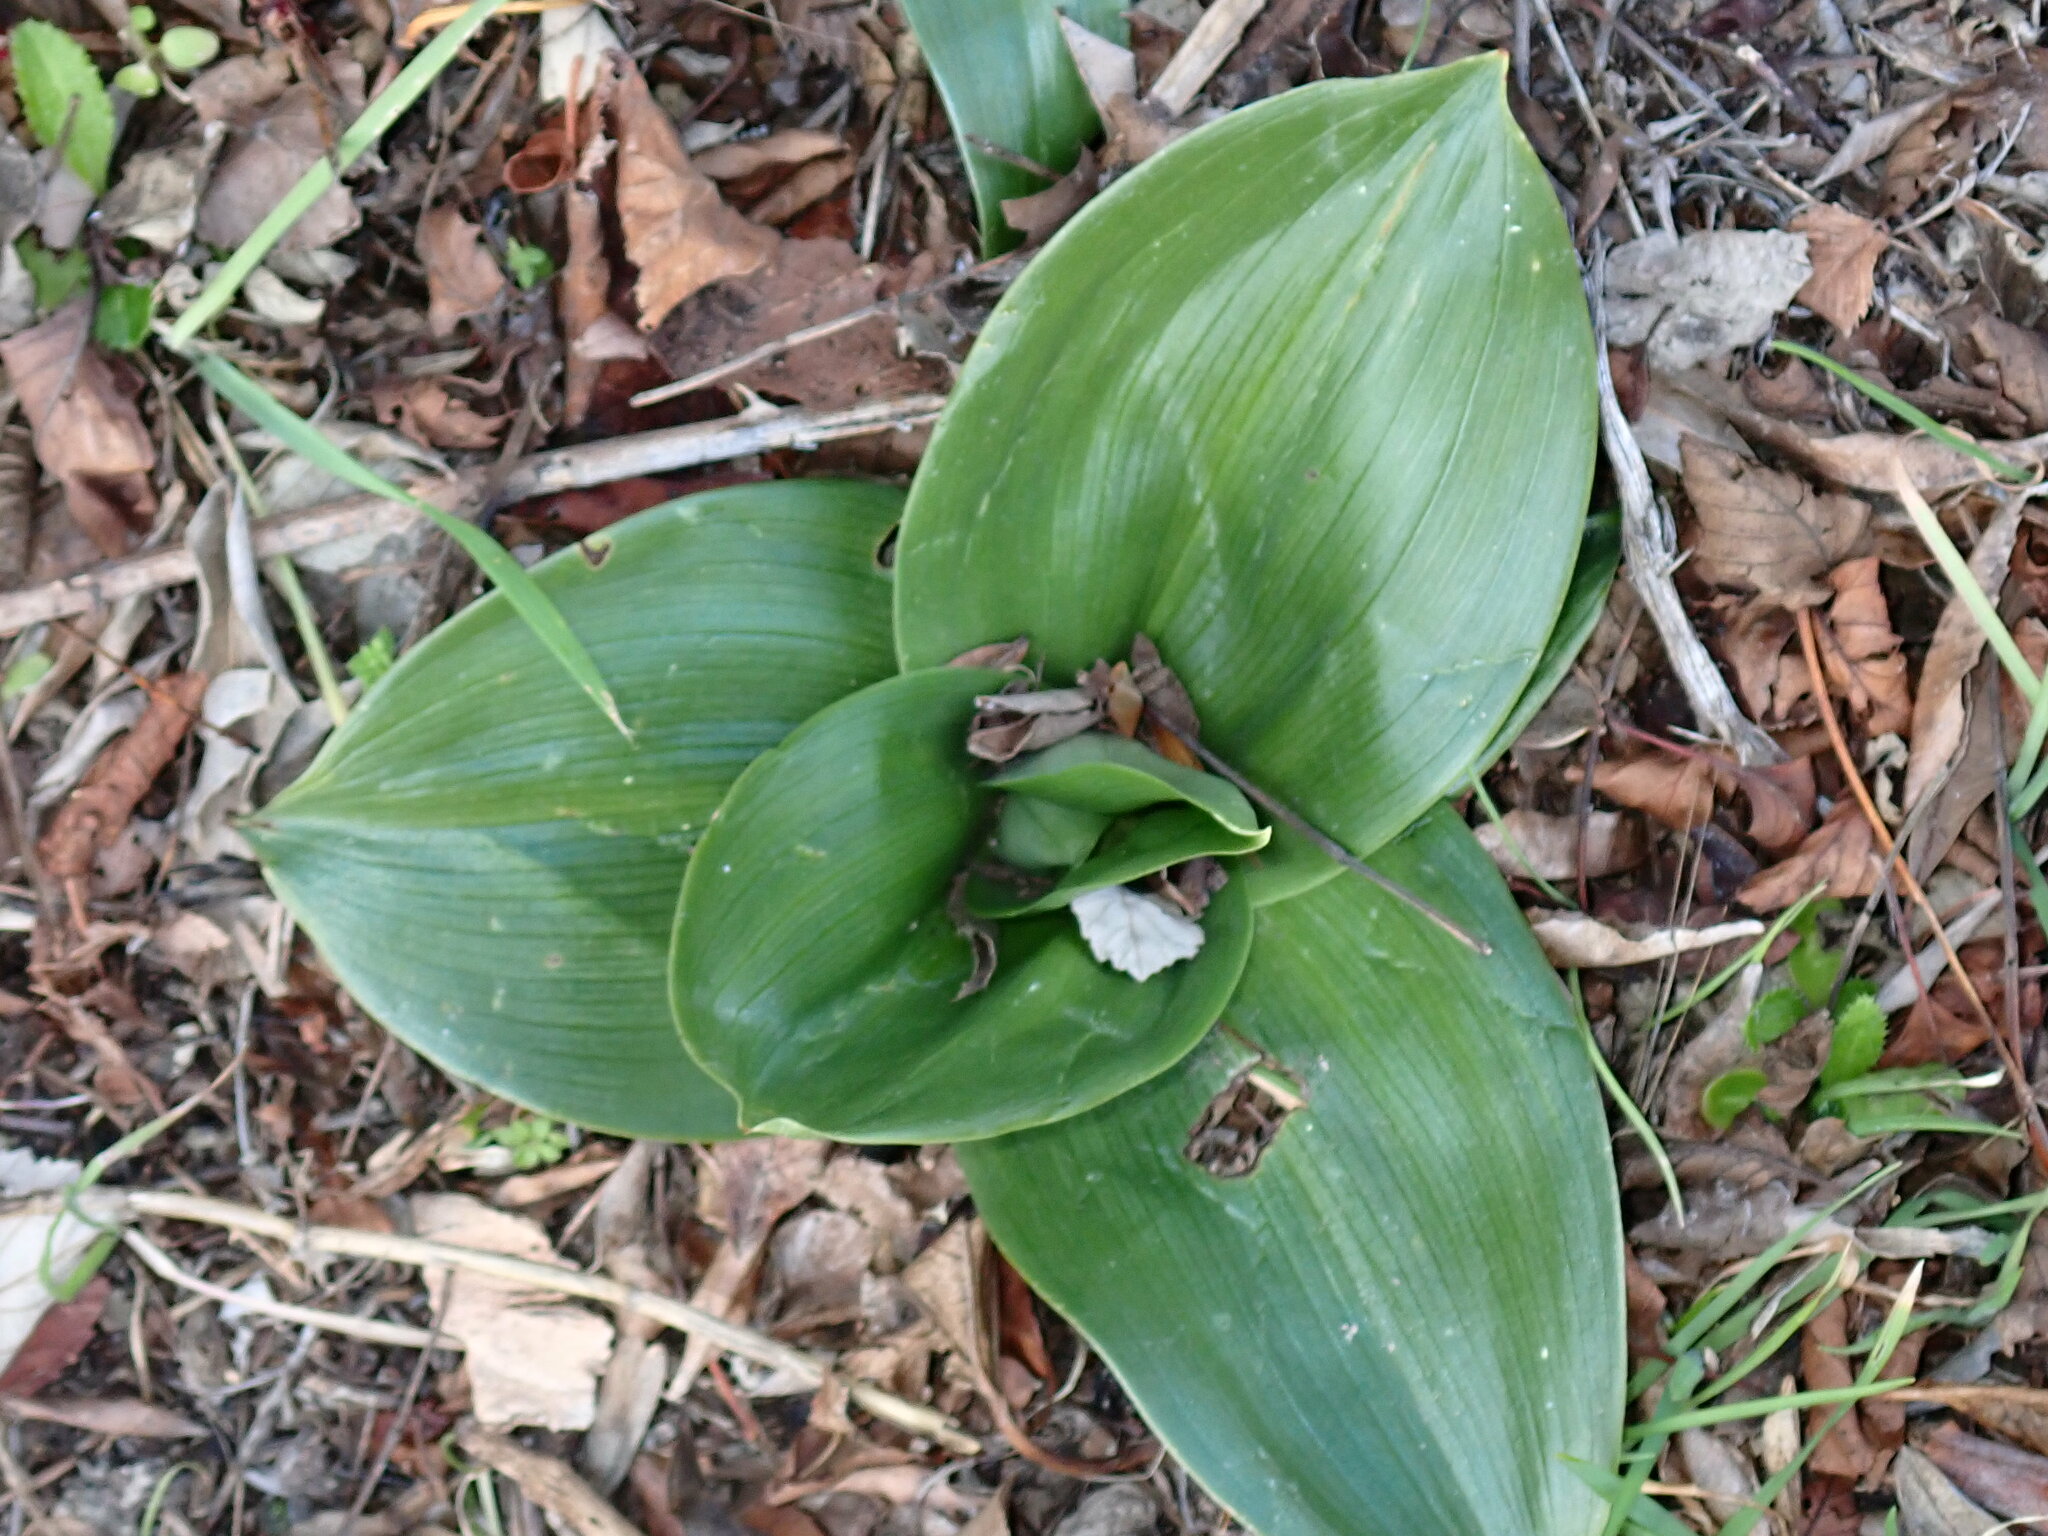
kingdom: Plantae
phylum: Tracheophyta
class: Liliopsida
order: Asparagales
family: Orchidaceae
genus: Himantoglossum
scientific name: Himantoglossum robertianum
